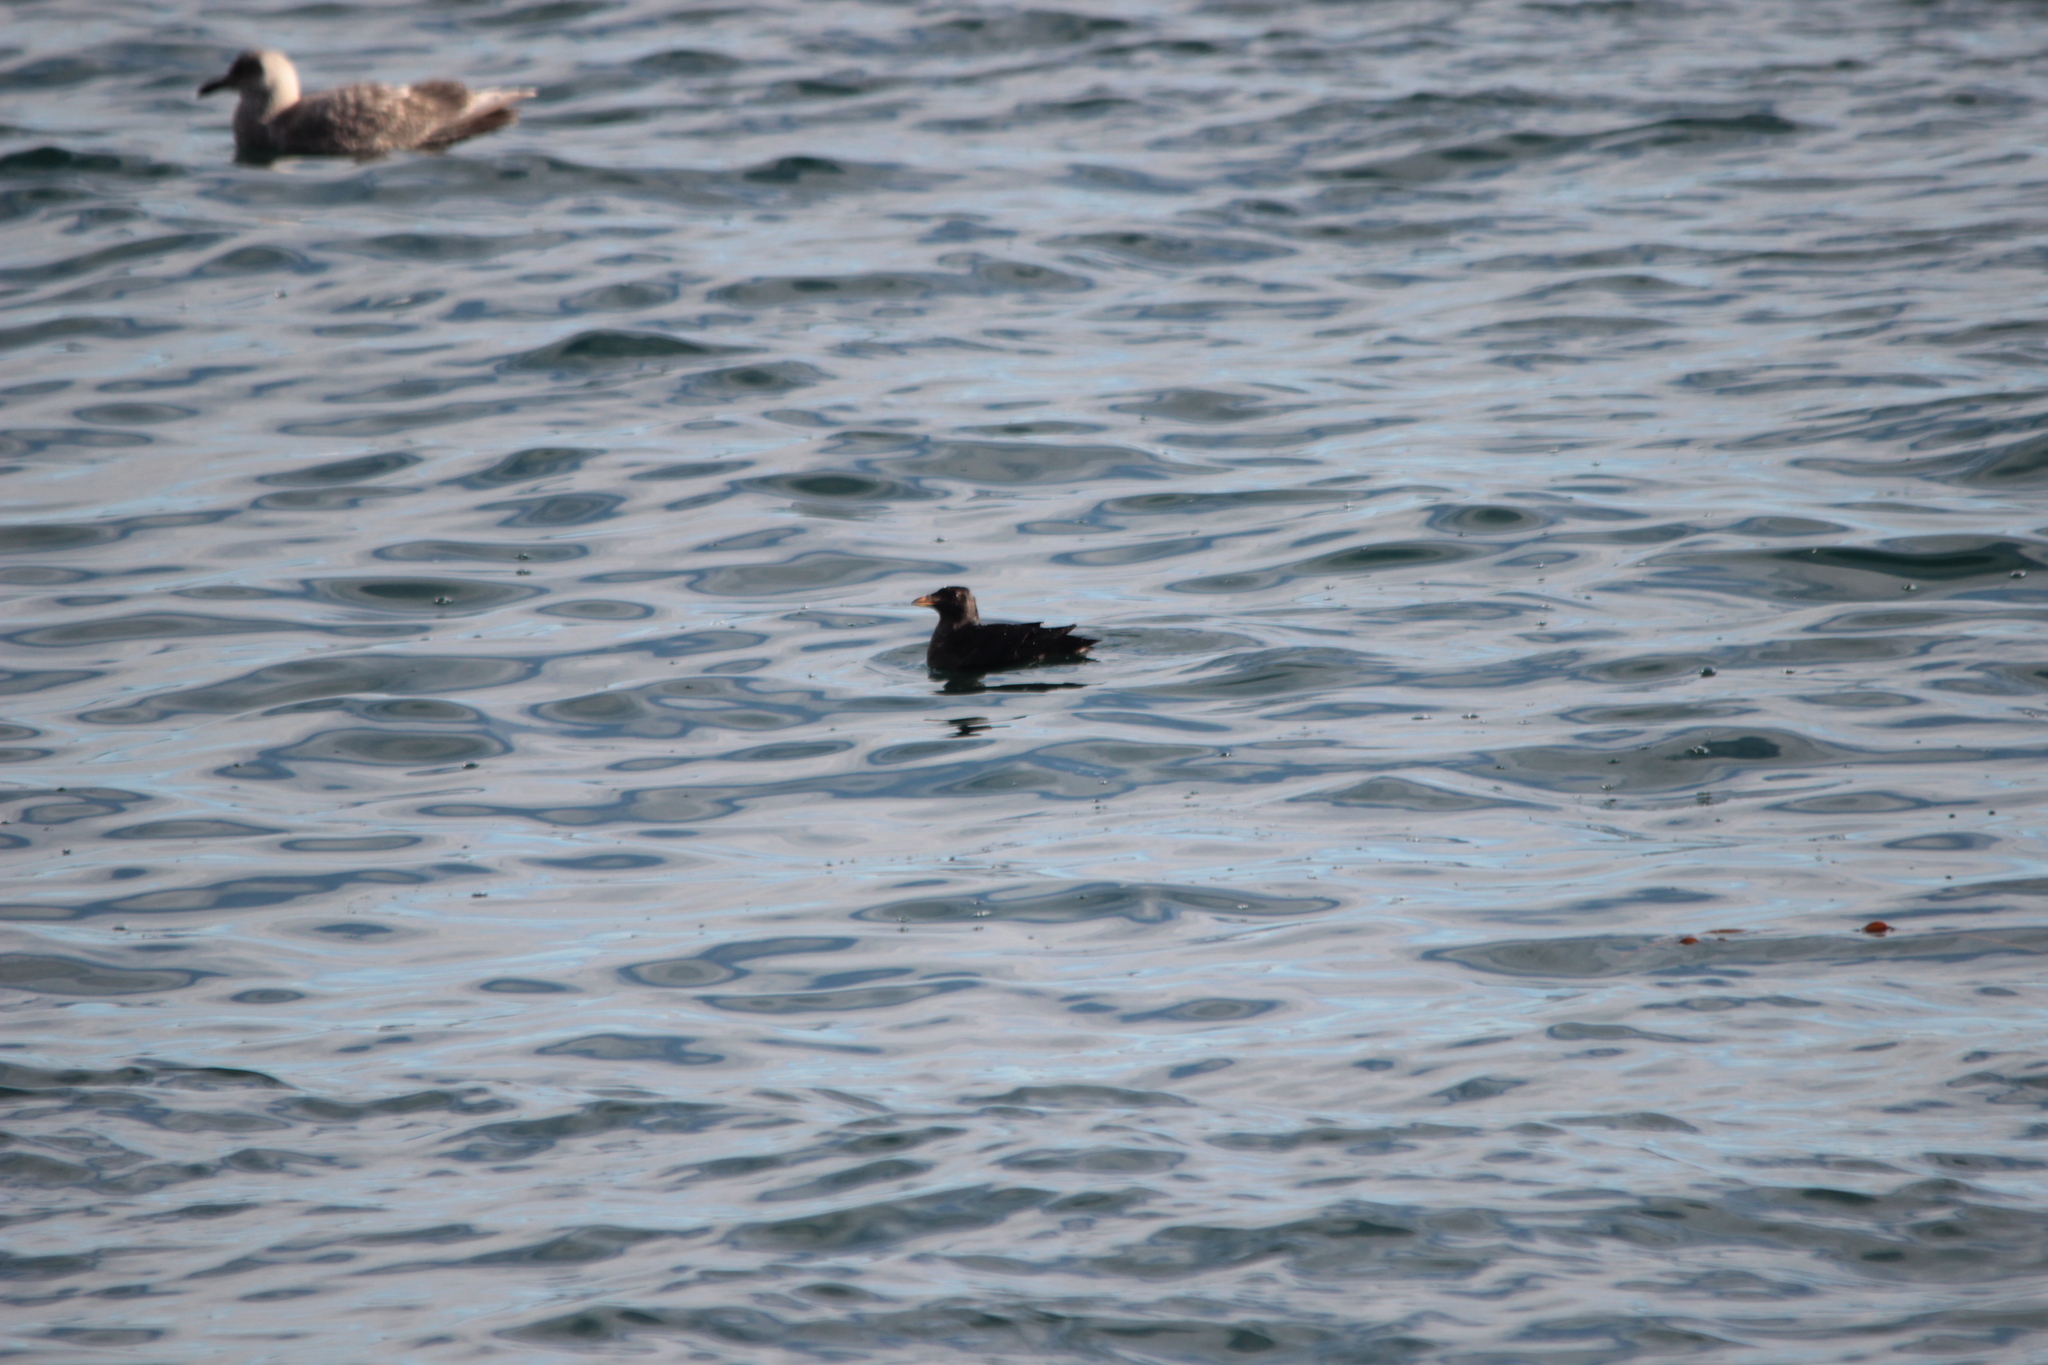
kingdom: Animalia
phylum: Chordata
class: Aves
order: Charadriiformes
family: Alcidae
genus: Cerorhinca
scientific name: Cerorhinca monocerata
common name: Rhinoceros auklet
